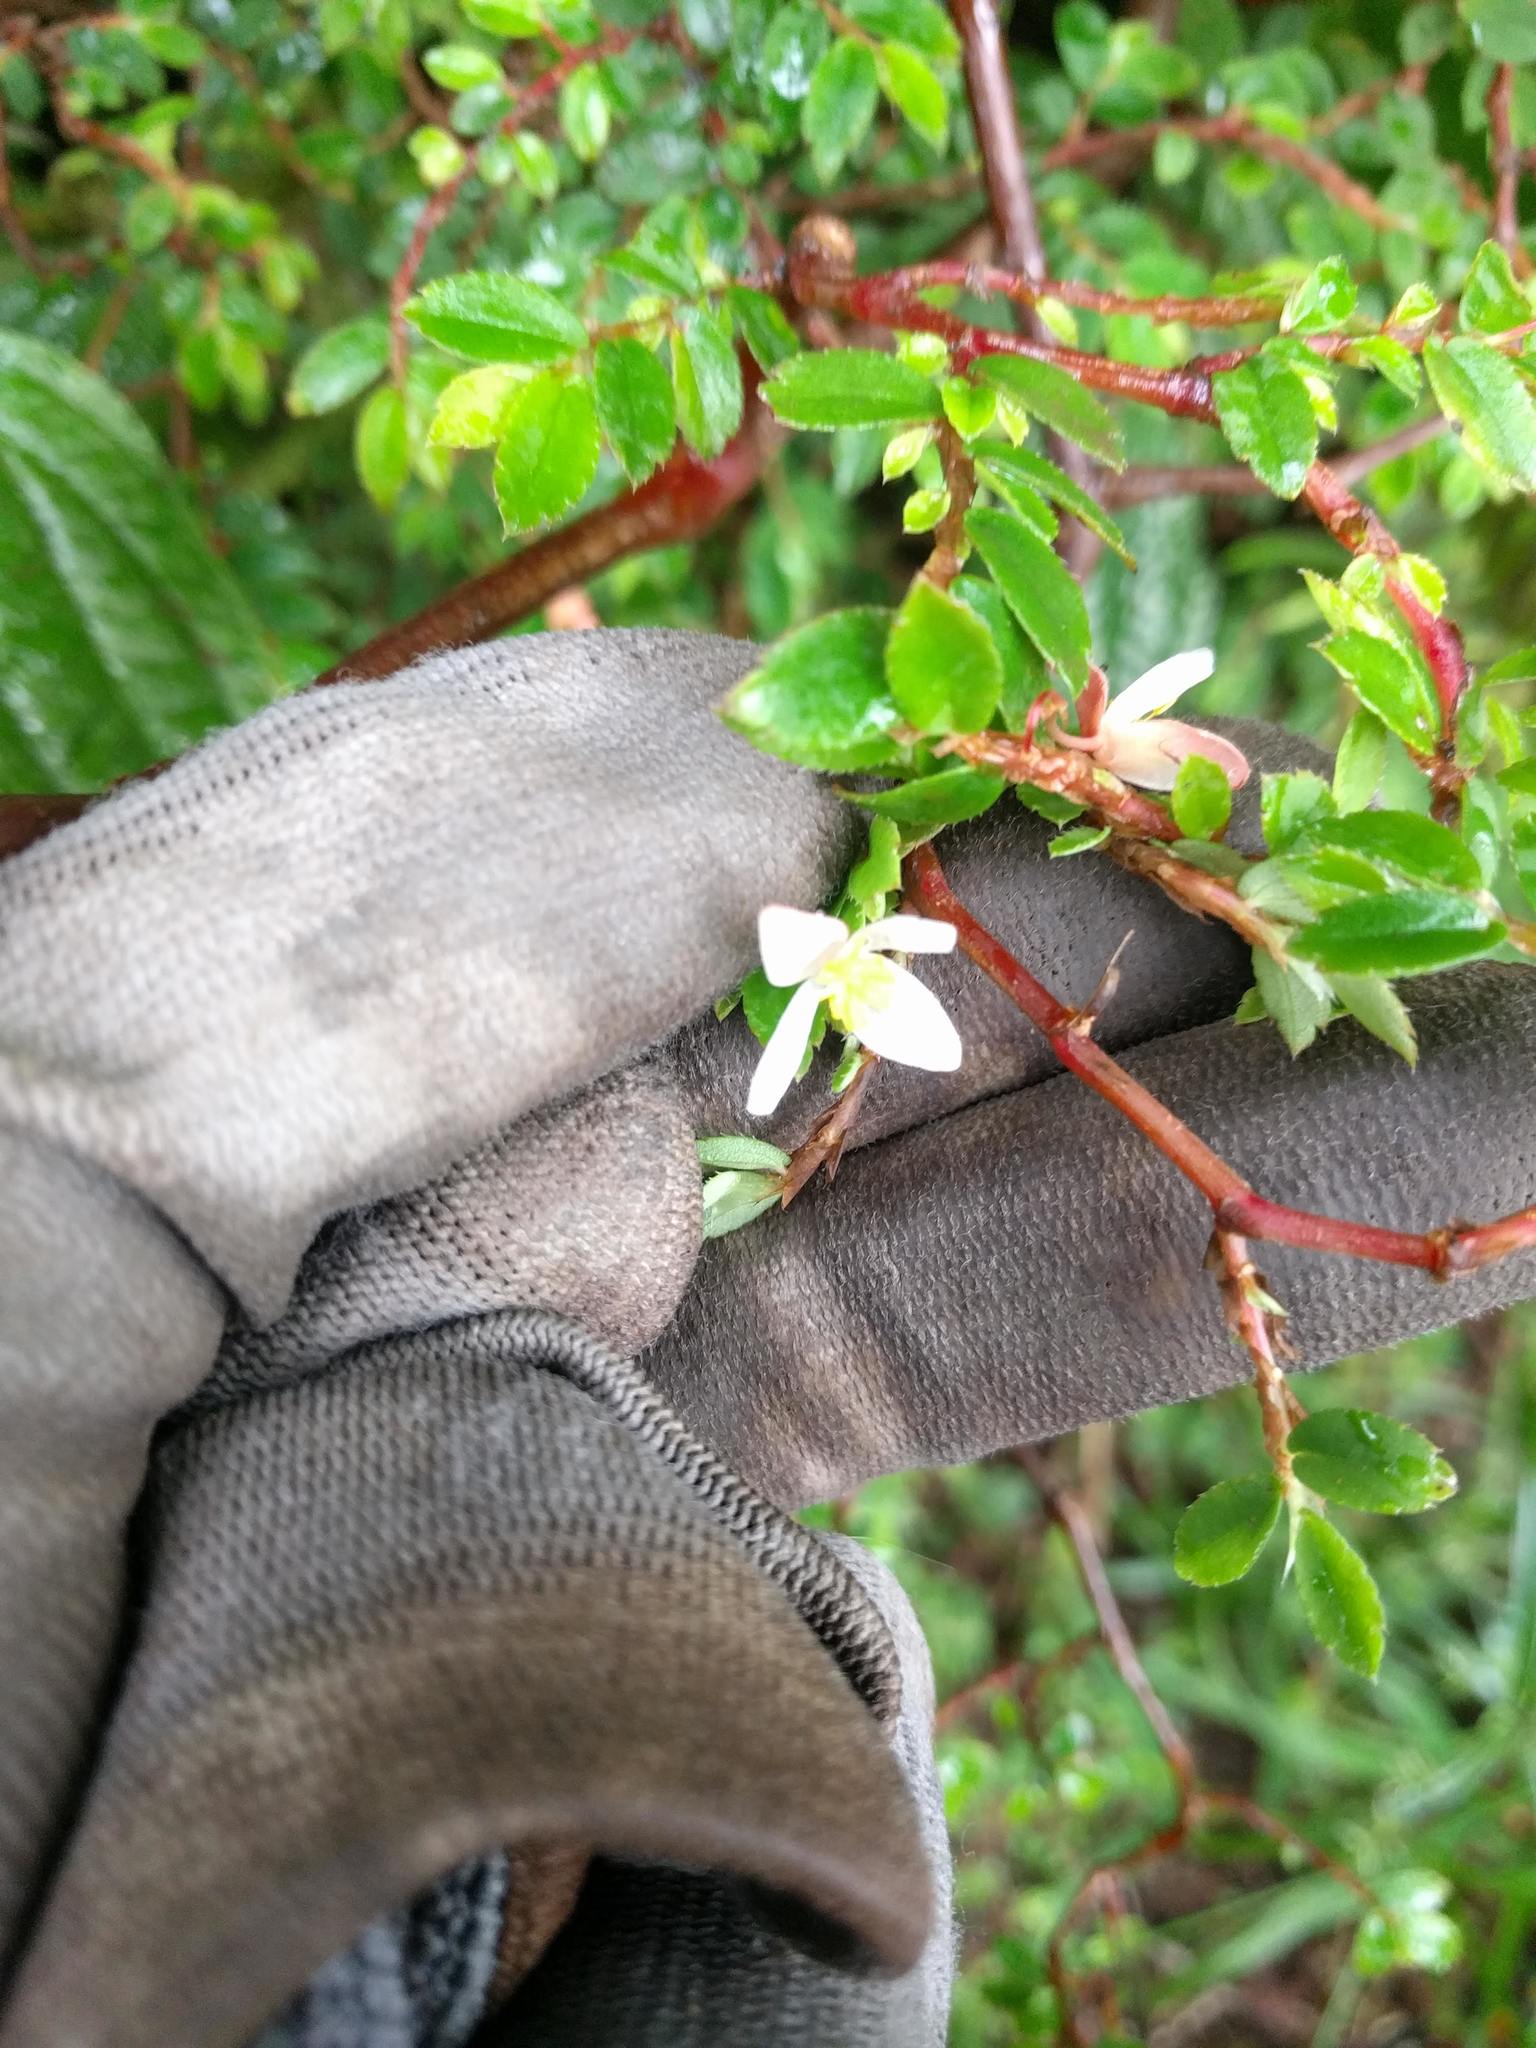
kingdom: Plantae
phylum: Tracheophyta
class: Magnoliopsida
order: Cucurbitales
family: Begoniaceae
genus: Begonia
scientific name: Begonia foliosa
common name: Fern begonia
